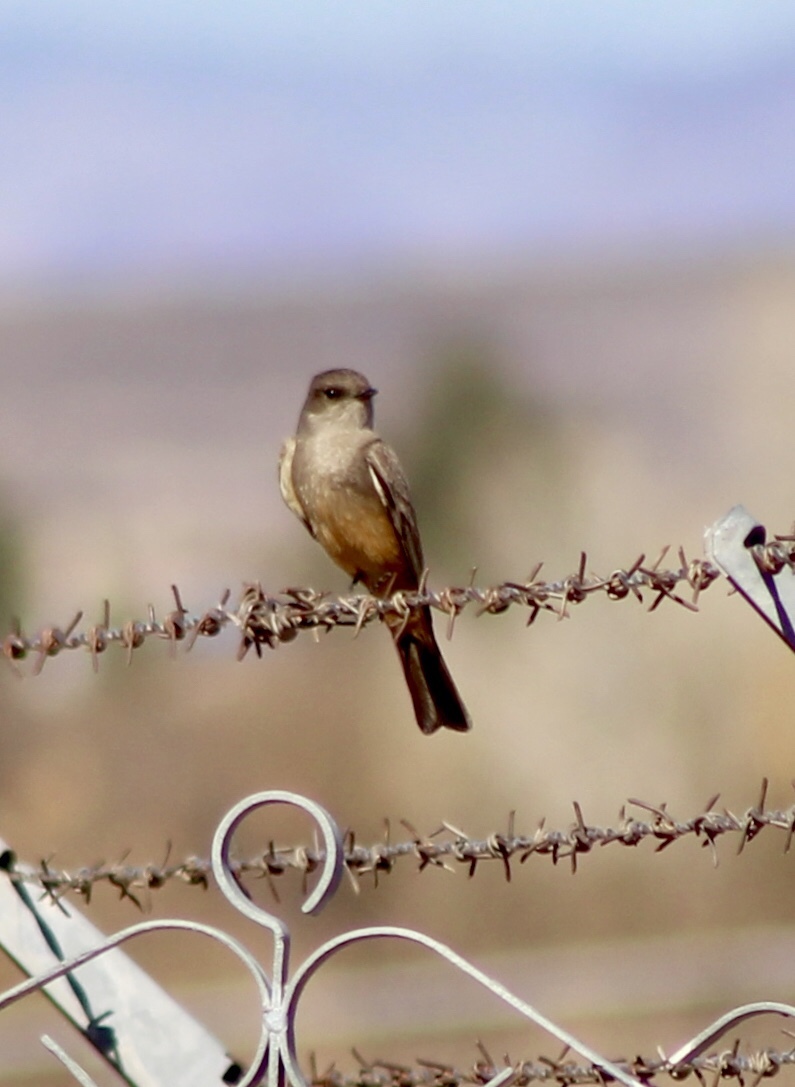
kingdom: Animalia
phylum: Chordata
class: Aves
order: Passeriformes
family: Tyrannidae
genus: Sayornis
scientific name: Sayornis saya
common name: Say's phoebe
